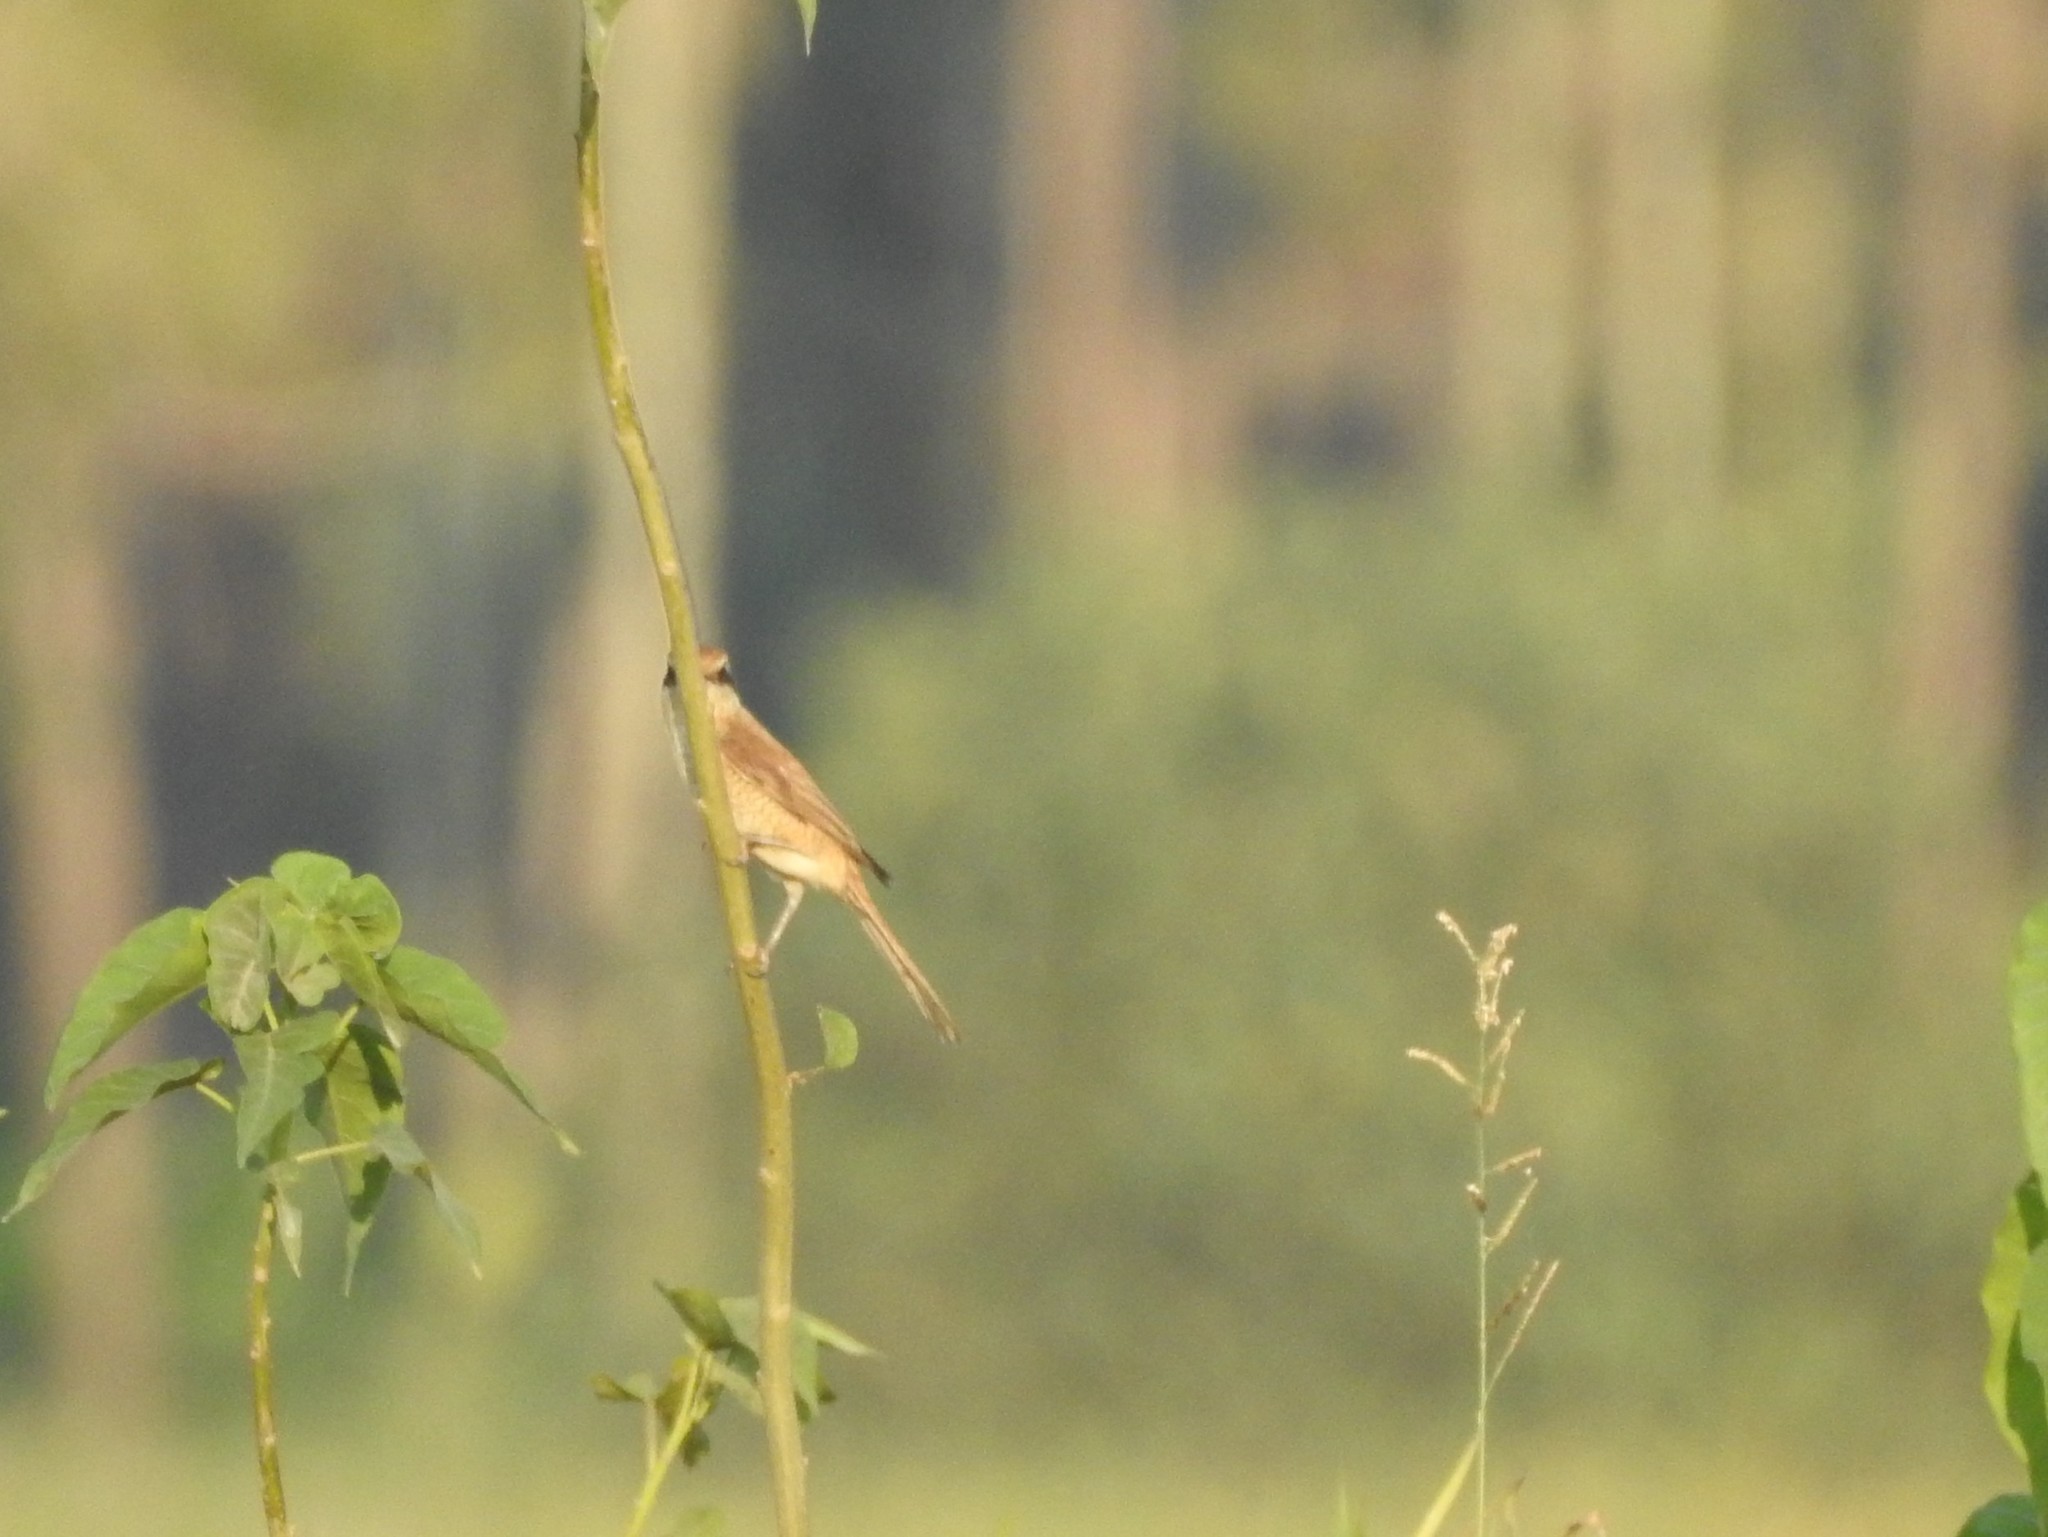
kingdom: Animalia
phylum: Chordata
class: Aves
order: Passeriformes
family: Laniidae
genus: Lanius
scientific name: Lanius cristatus
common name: Brown shrike
